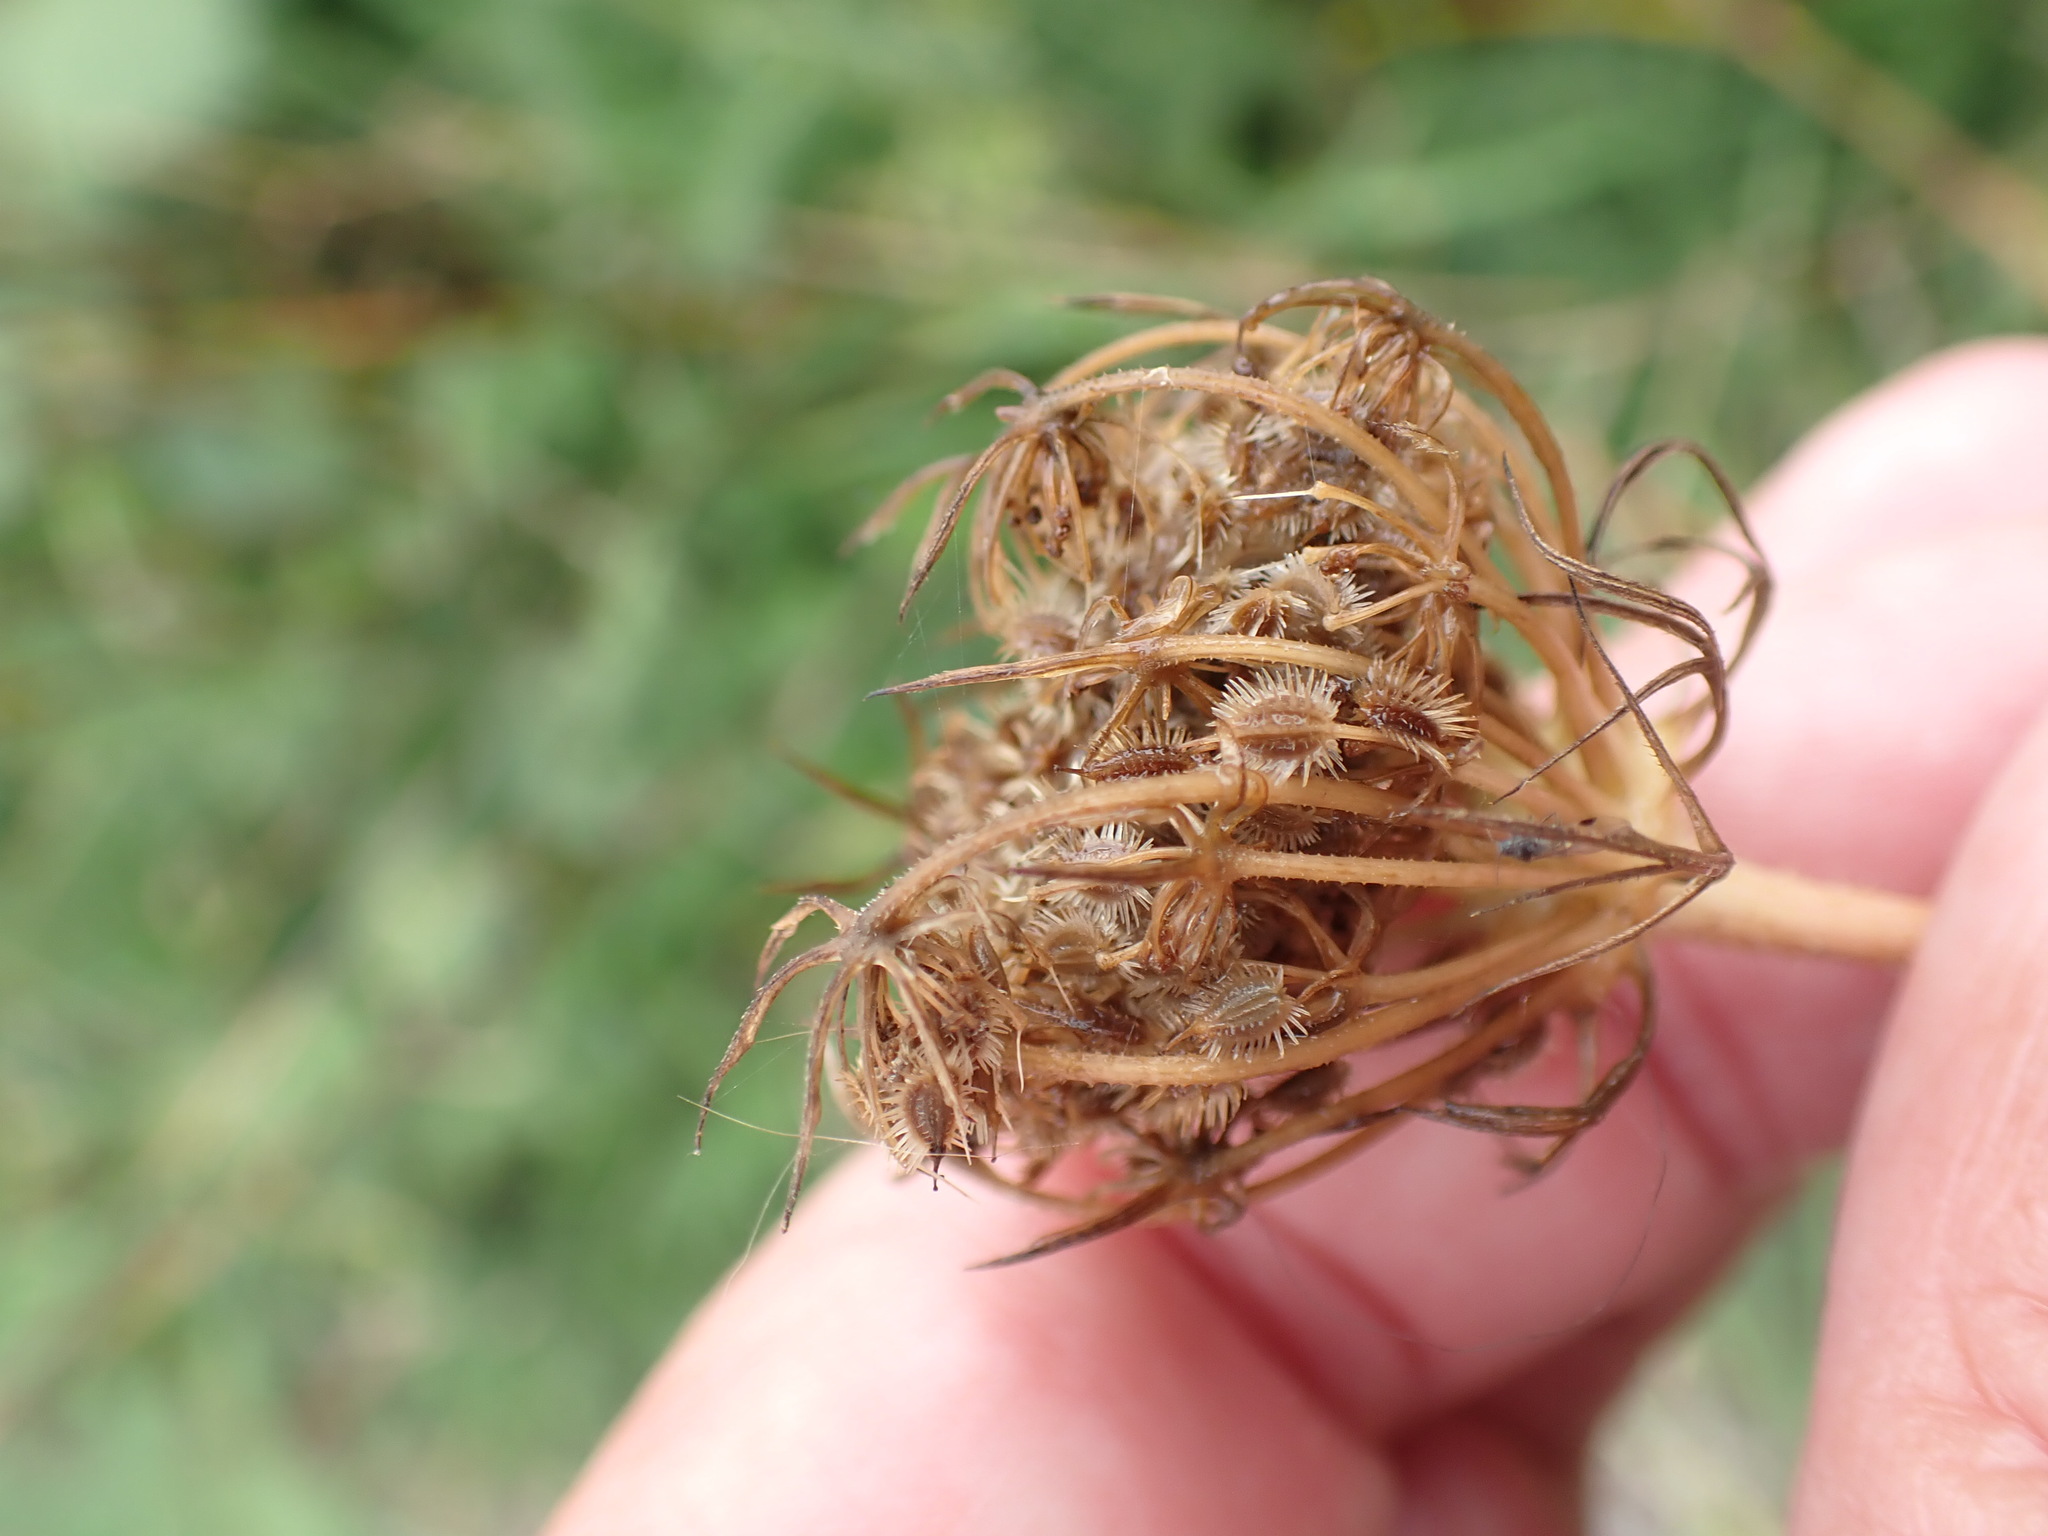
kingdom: Plantae
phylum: Tracheophyta
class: Magnoliopsida
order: Apiales
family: Apiaceae
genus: Daucus
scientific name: Daucus carota
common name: Wild carrot
